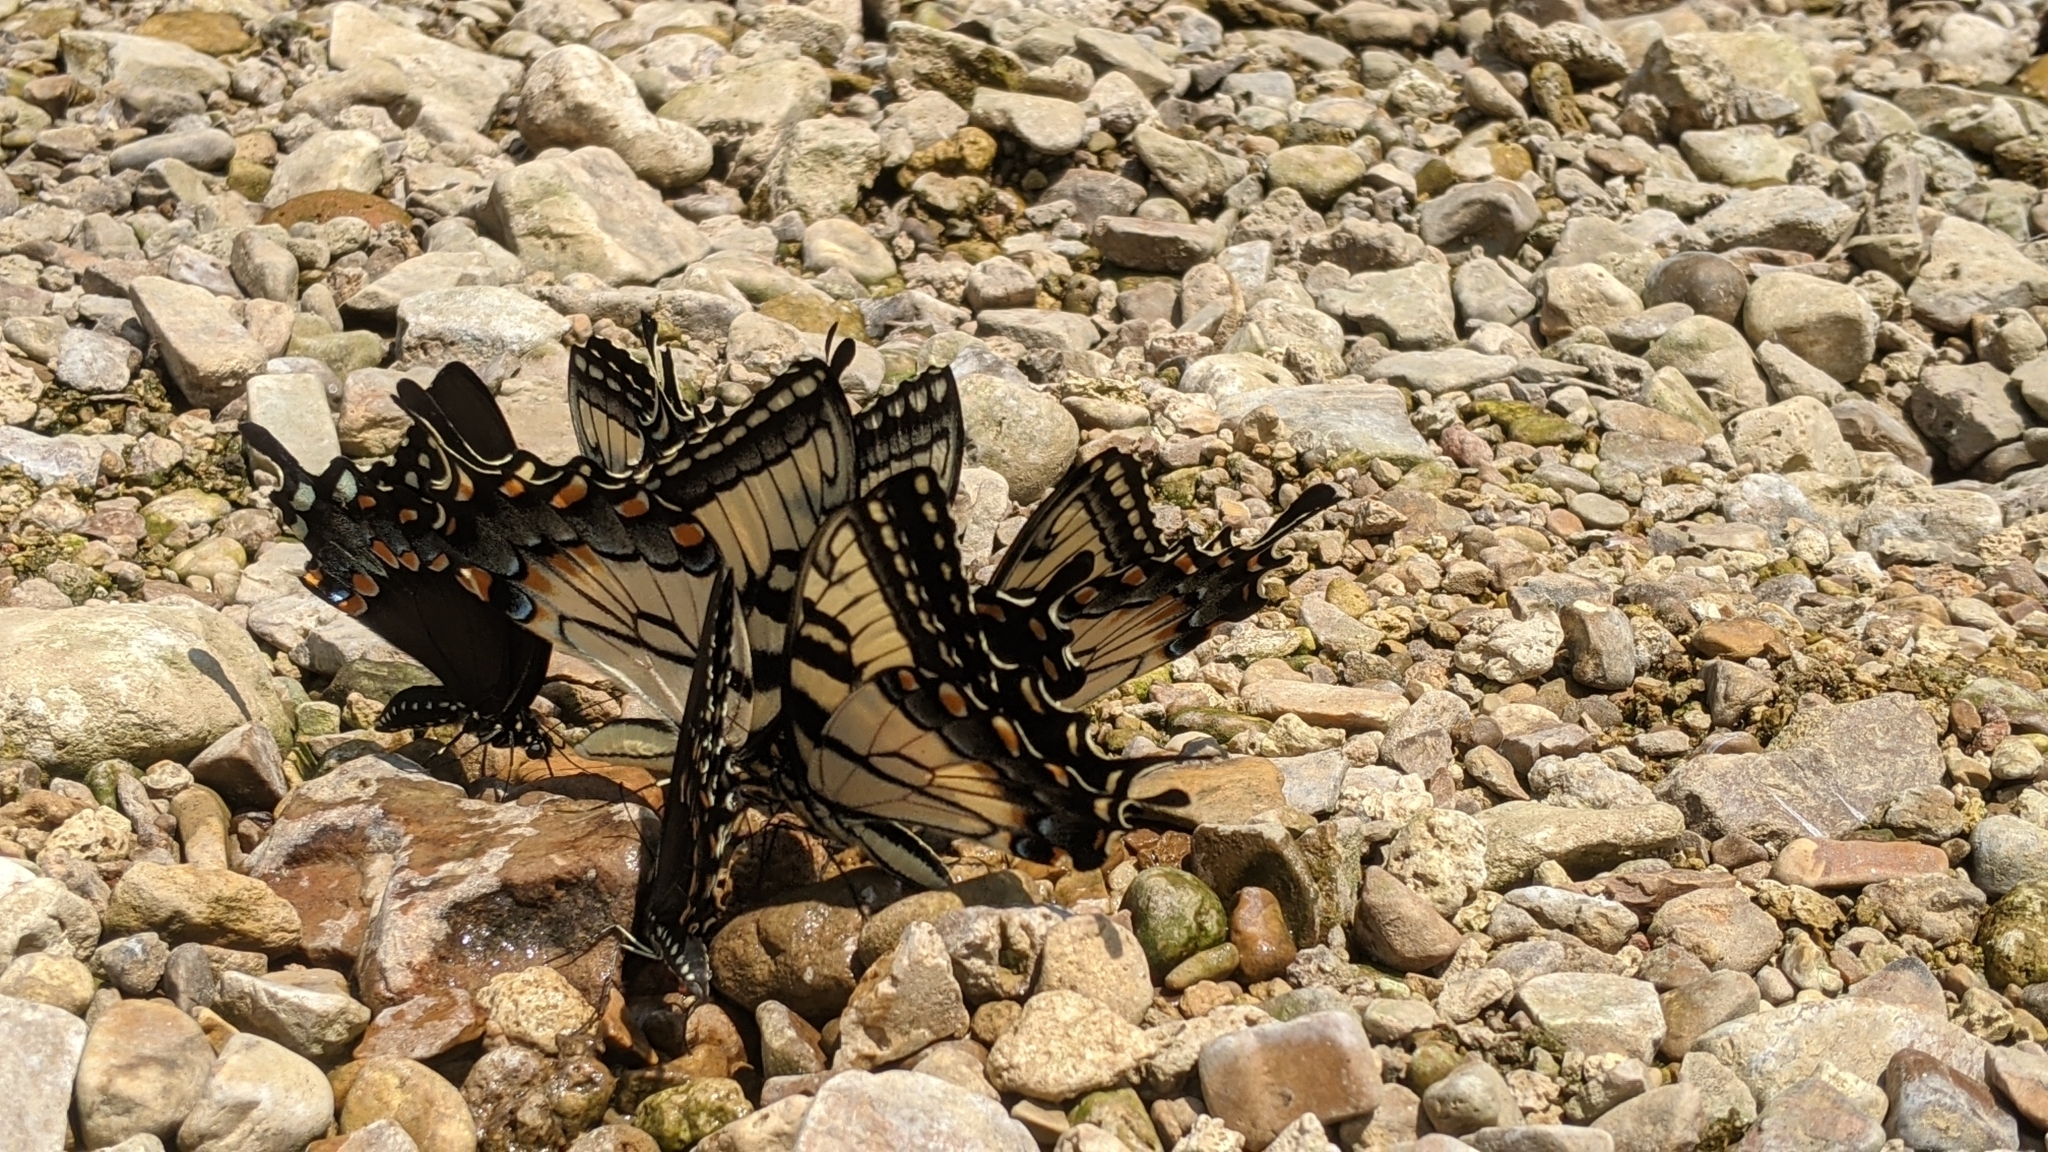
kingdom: Animalia
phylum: Arthropoda
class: Insecta
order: Lepidoptera
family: Papilionidae
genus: Papilio
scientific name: Papilio glaucus
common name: Tiger swallowtail
